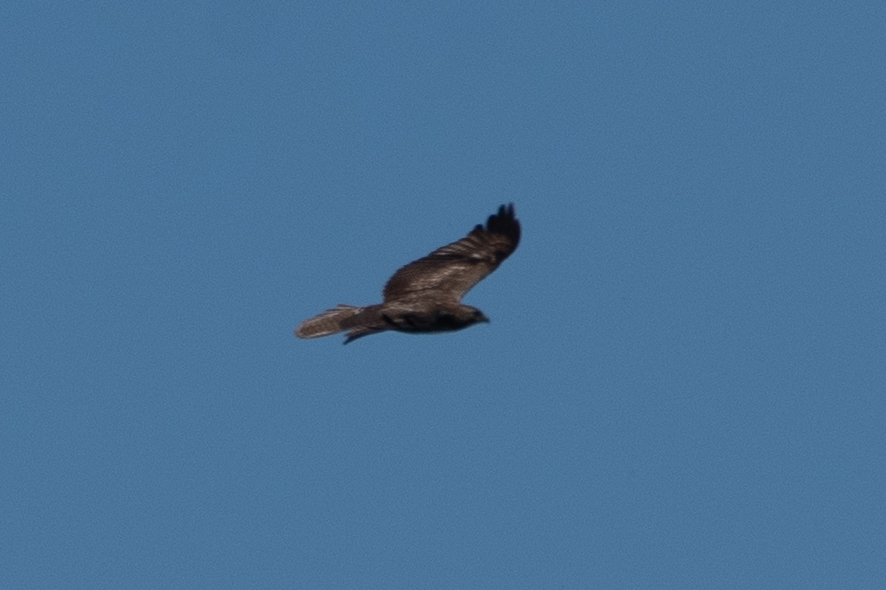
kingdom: Animalia
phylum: Chordata
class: Aves
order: Accipitriformes
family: Accipitridae
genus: Buteo
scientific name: Buteo jamaicensis
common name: Red-tailed hawk
